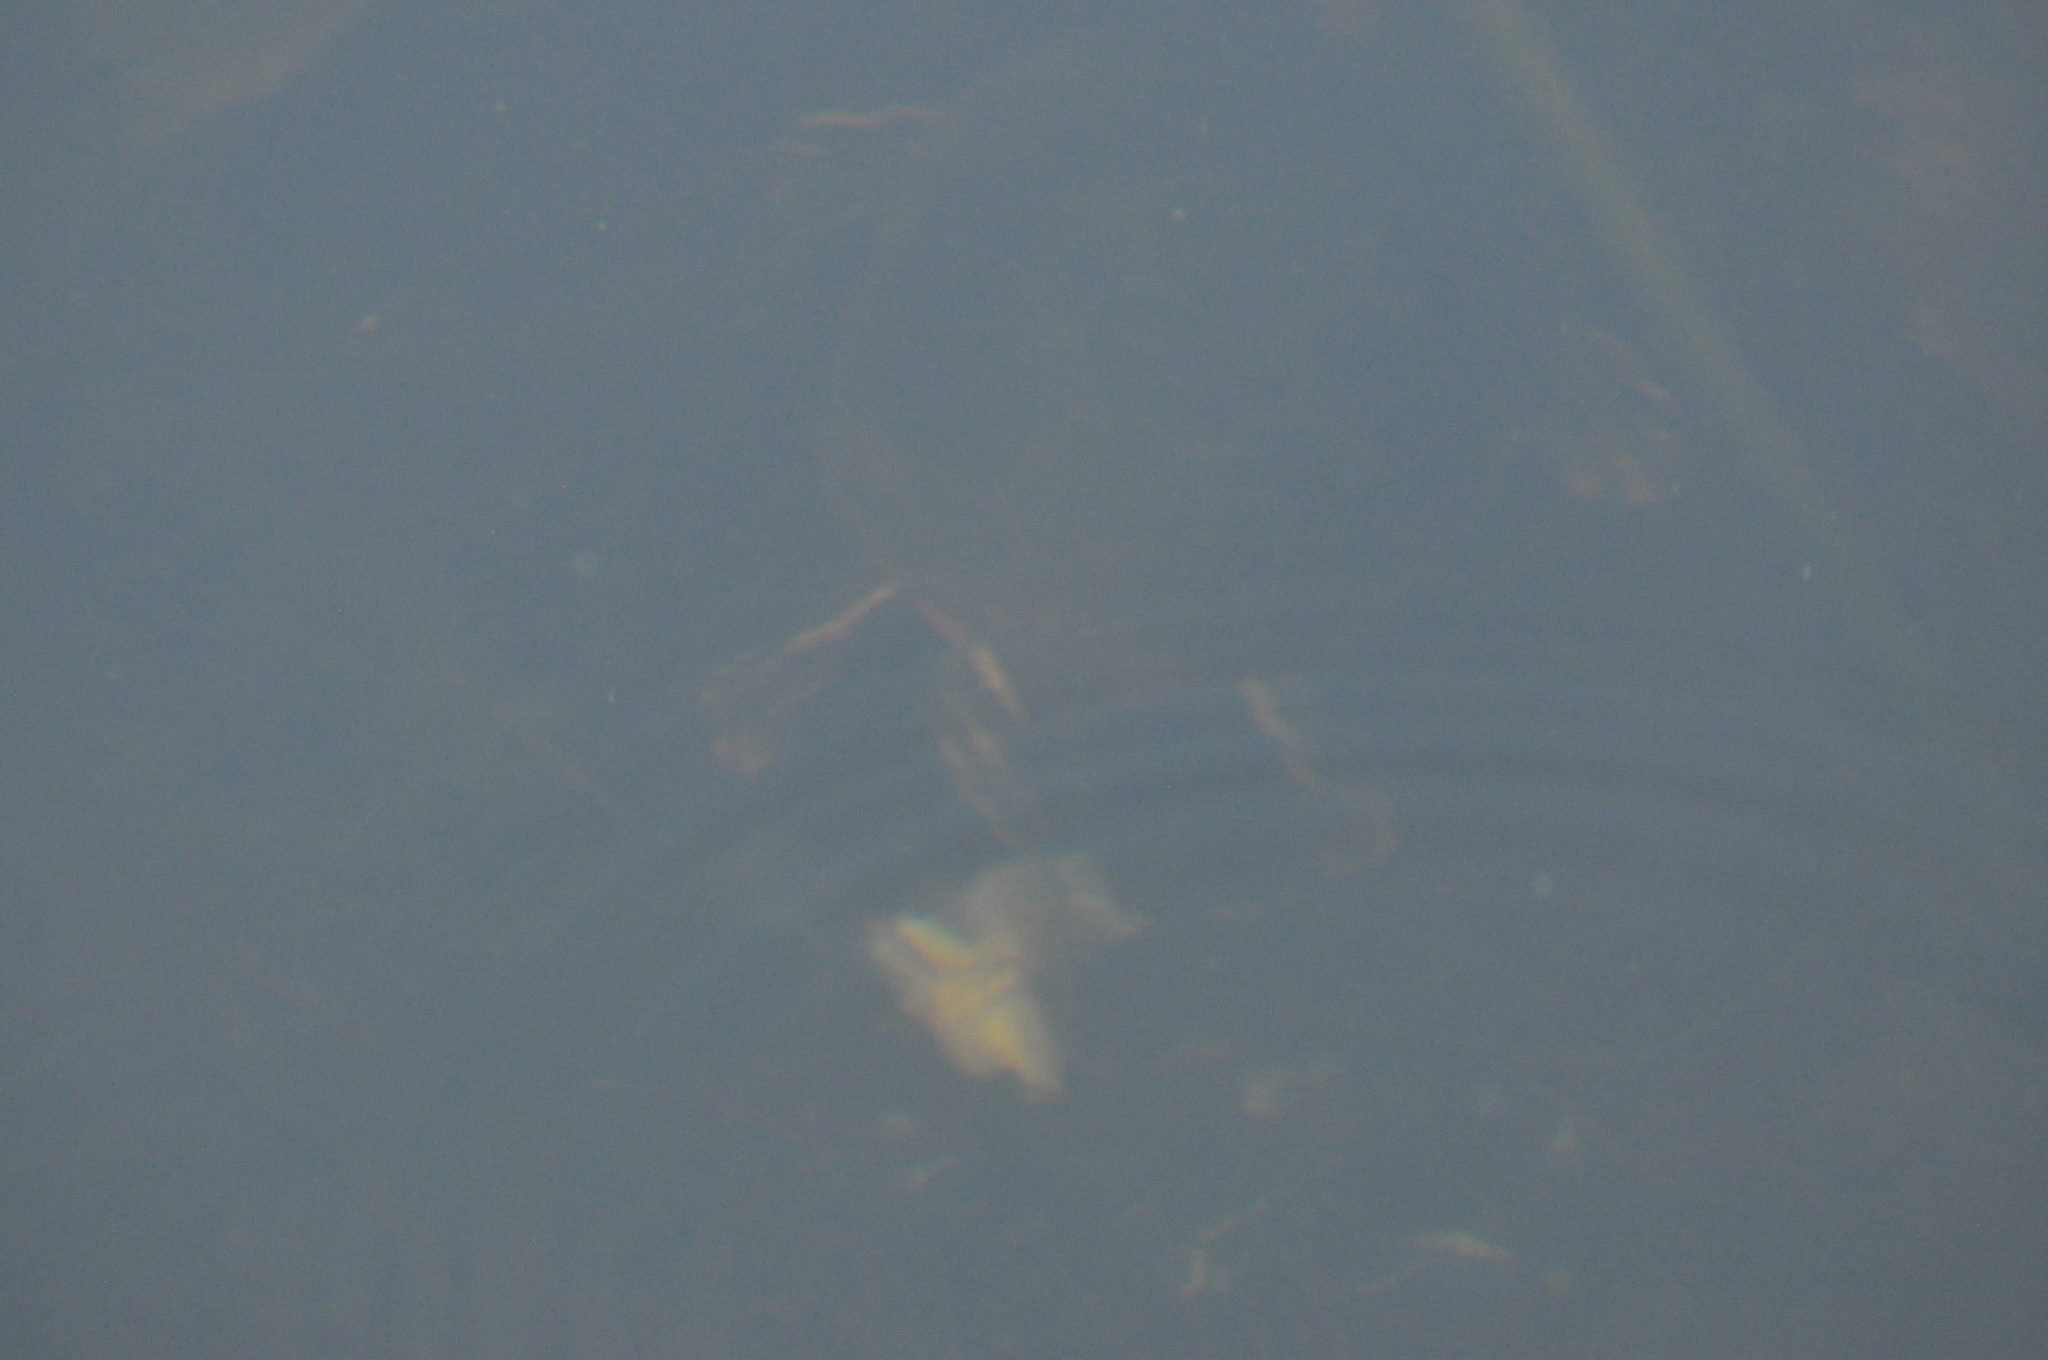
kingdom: Animalia
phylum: Chordata
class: Testudines
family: Emydidae
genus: Chrysemys
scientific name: Chrysemys picta
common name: Painted turtle
